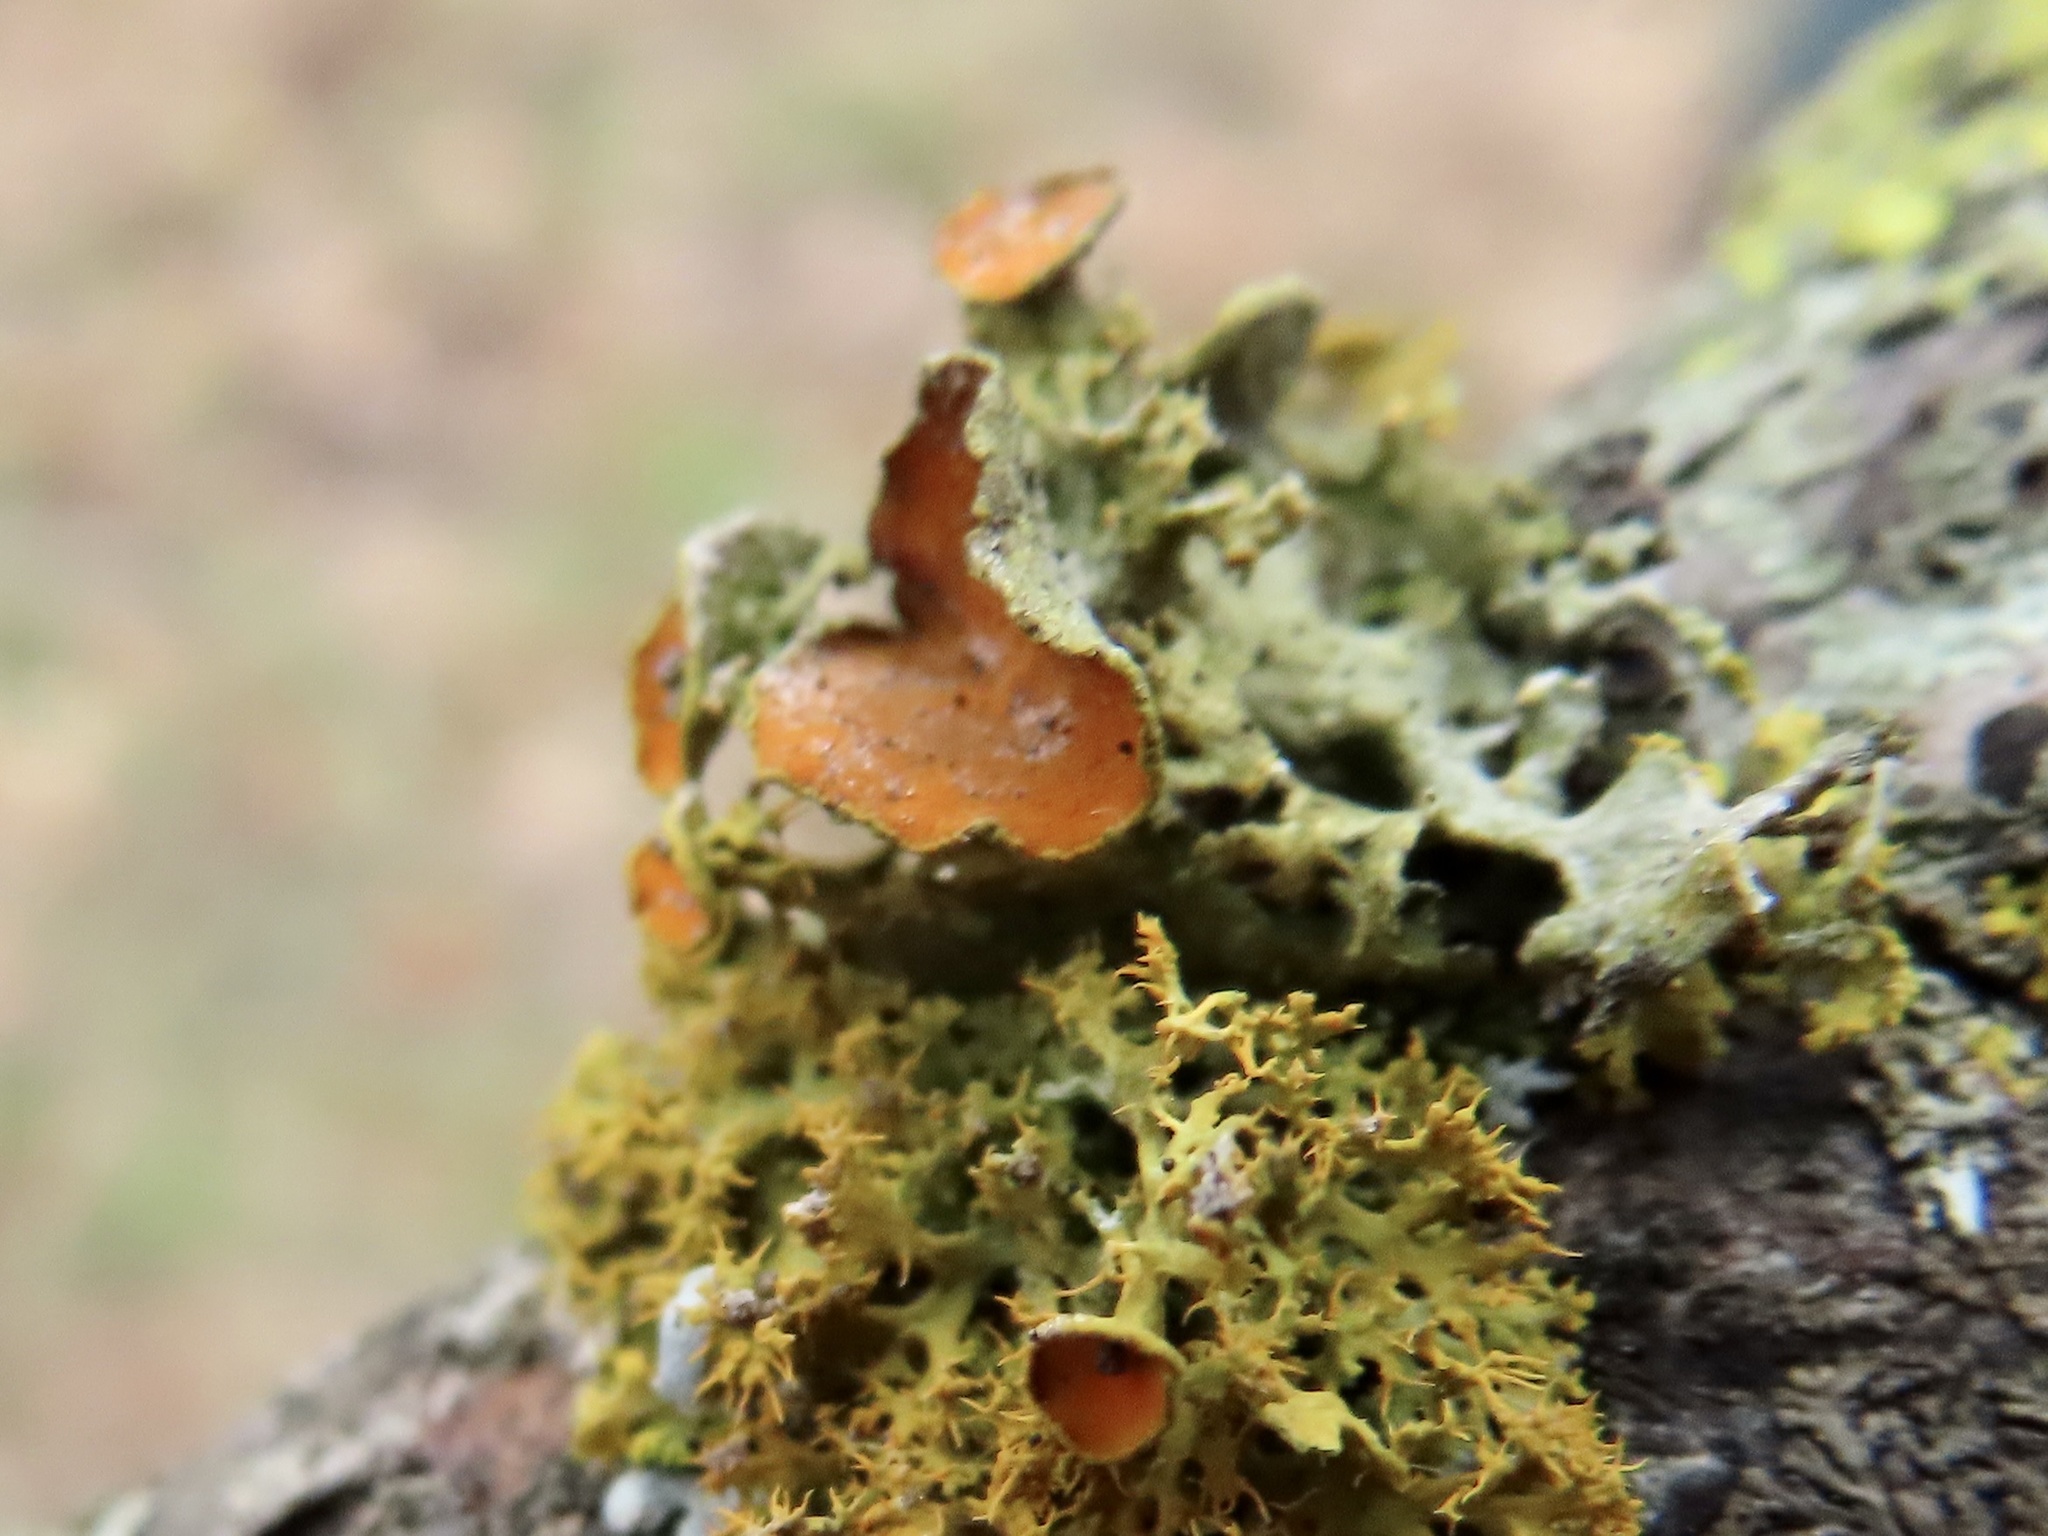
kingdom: Fungi
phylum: Ascomycota
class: Lecanoromycetes
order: Teloschistales
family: Teloschistaceae
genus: Niorma
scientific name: Niorma chrysophthalma
